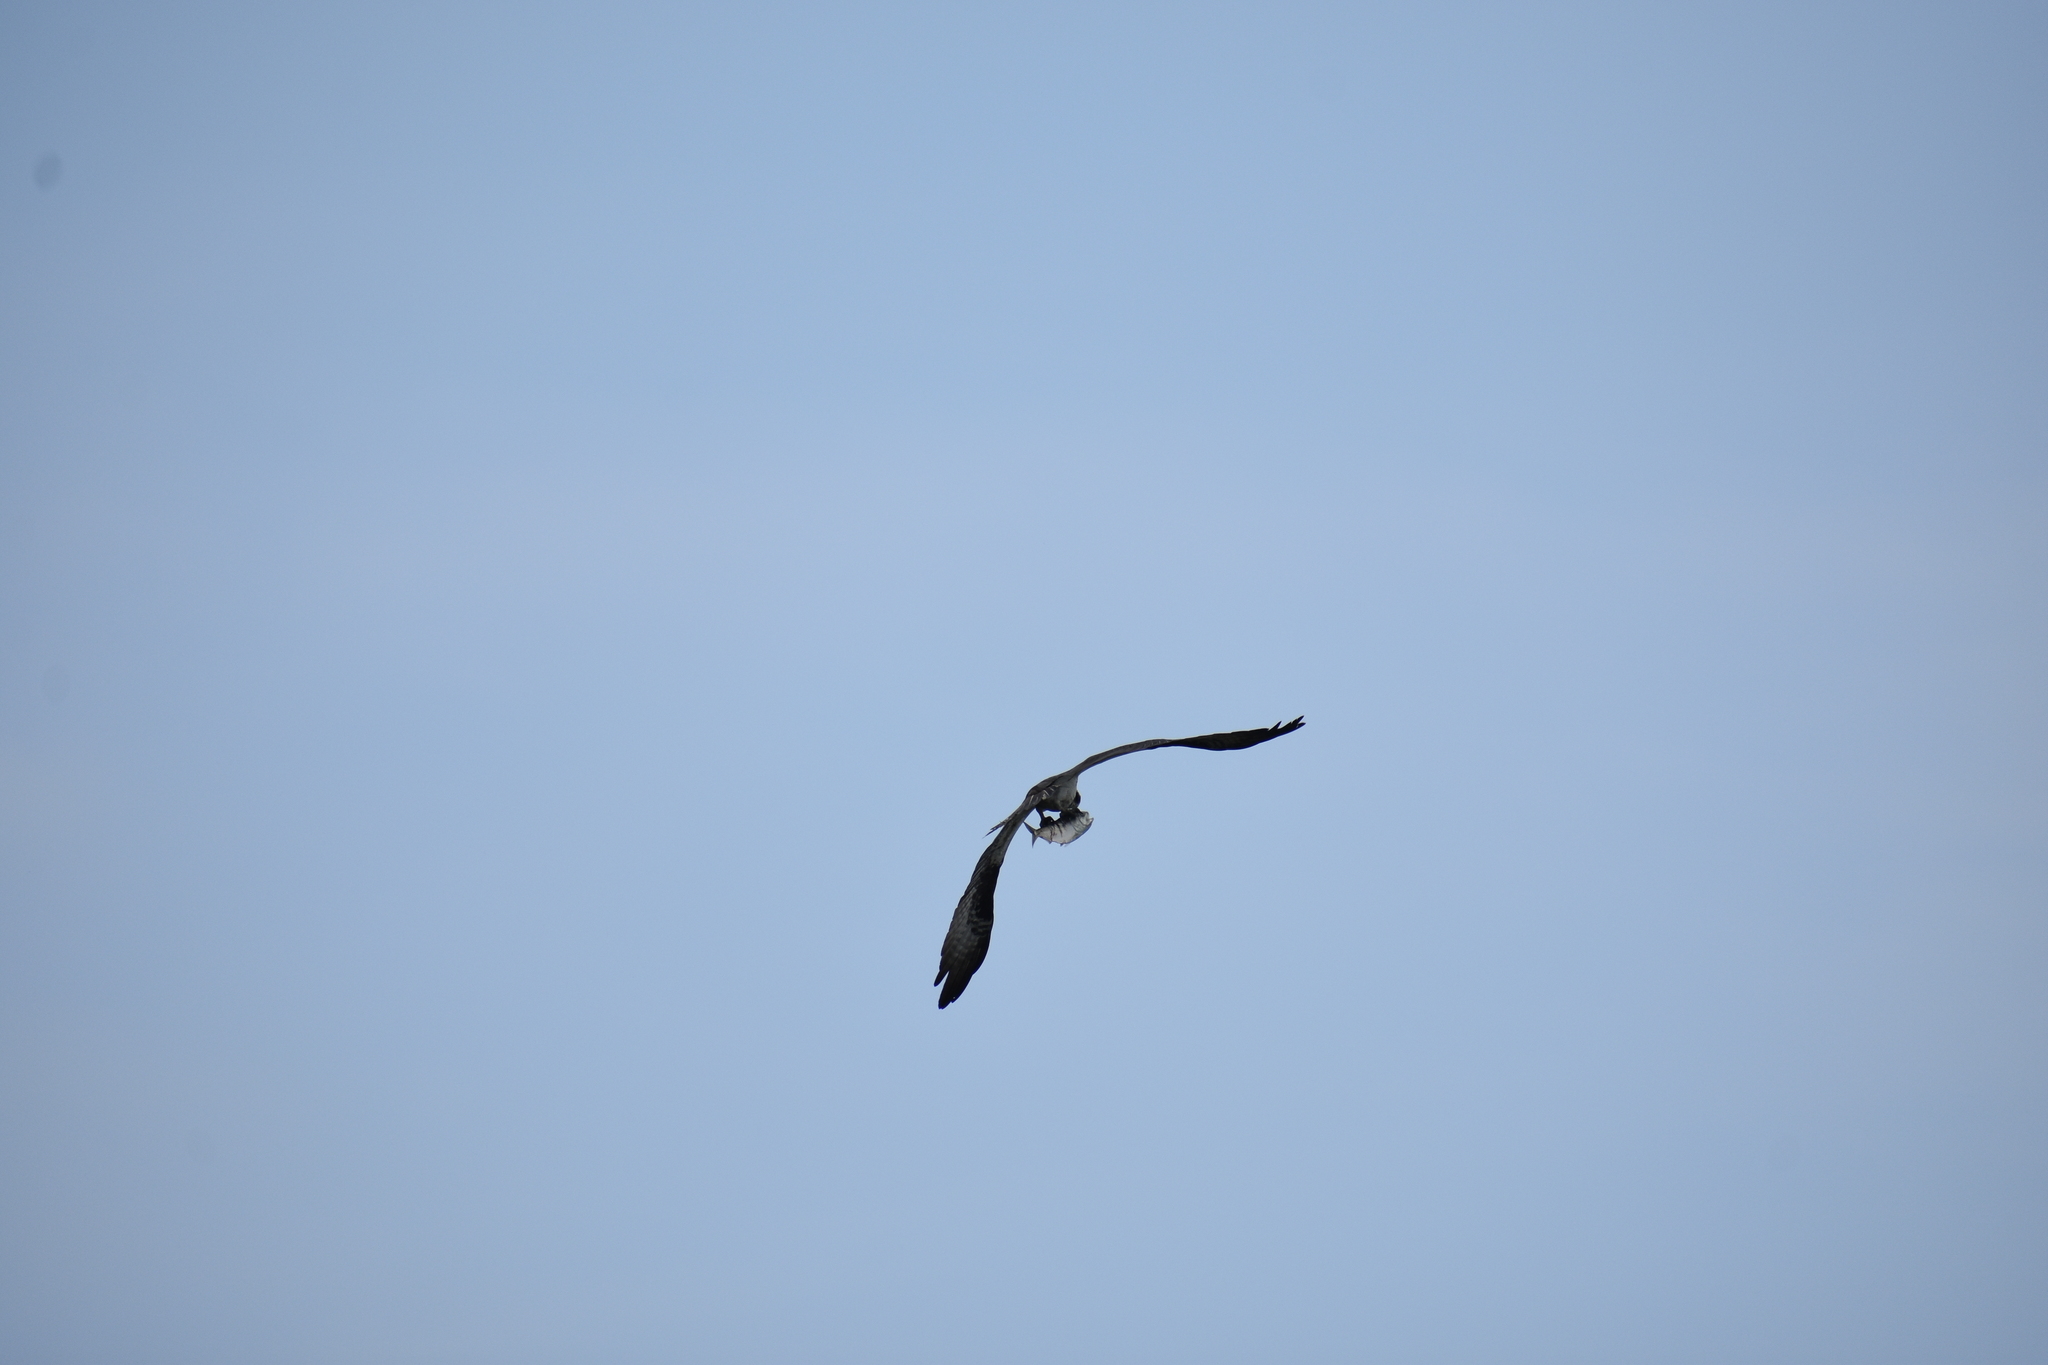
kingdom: Animalia
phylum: Chordata
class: Aves
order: Accipitriformes
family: Pandionidae
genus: Pandion
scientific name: Pandion haliaetus
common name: Osprey
